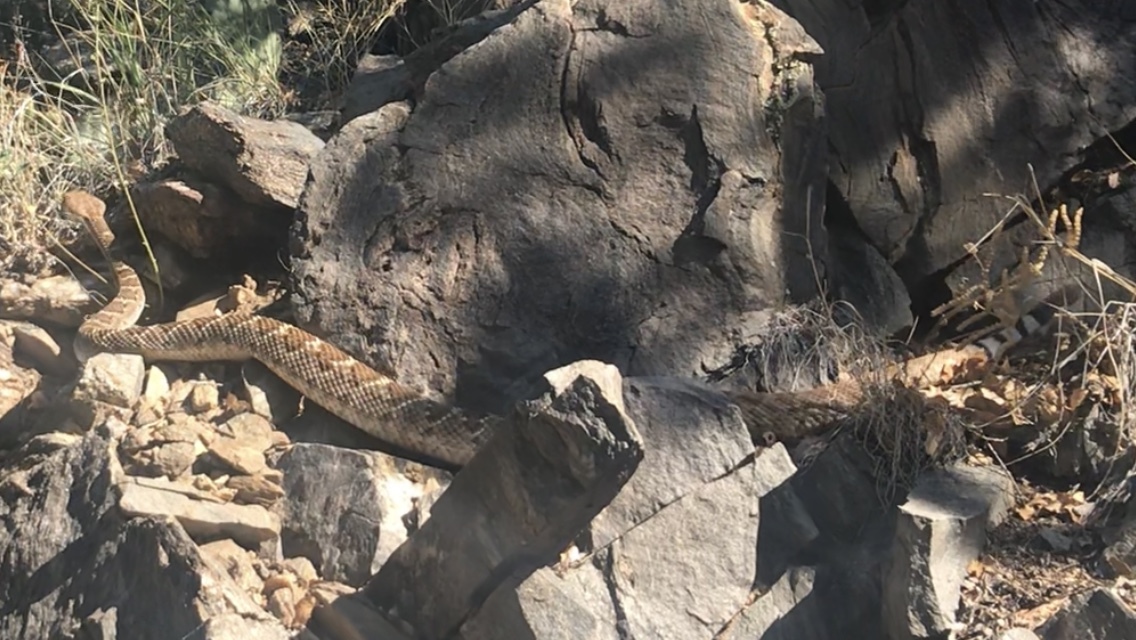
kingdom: Animalia
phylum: Chordata
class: Squamata
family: Viperidae
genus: Crotalus
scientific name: Crotalus atrox
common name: Western diamond-backed rattlesnake
